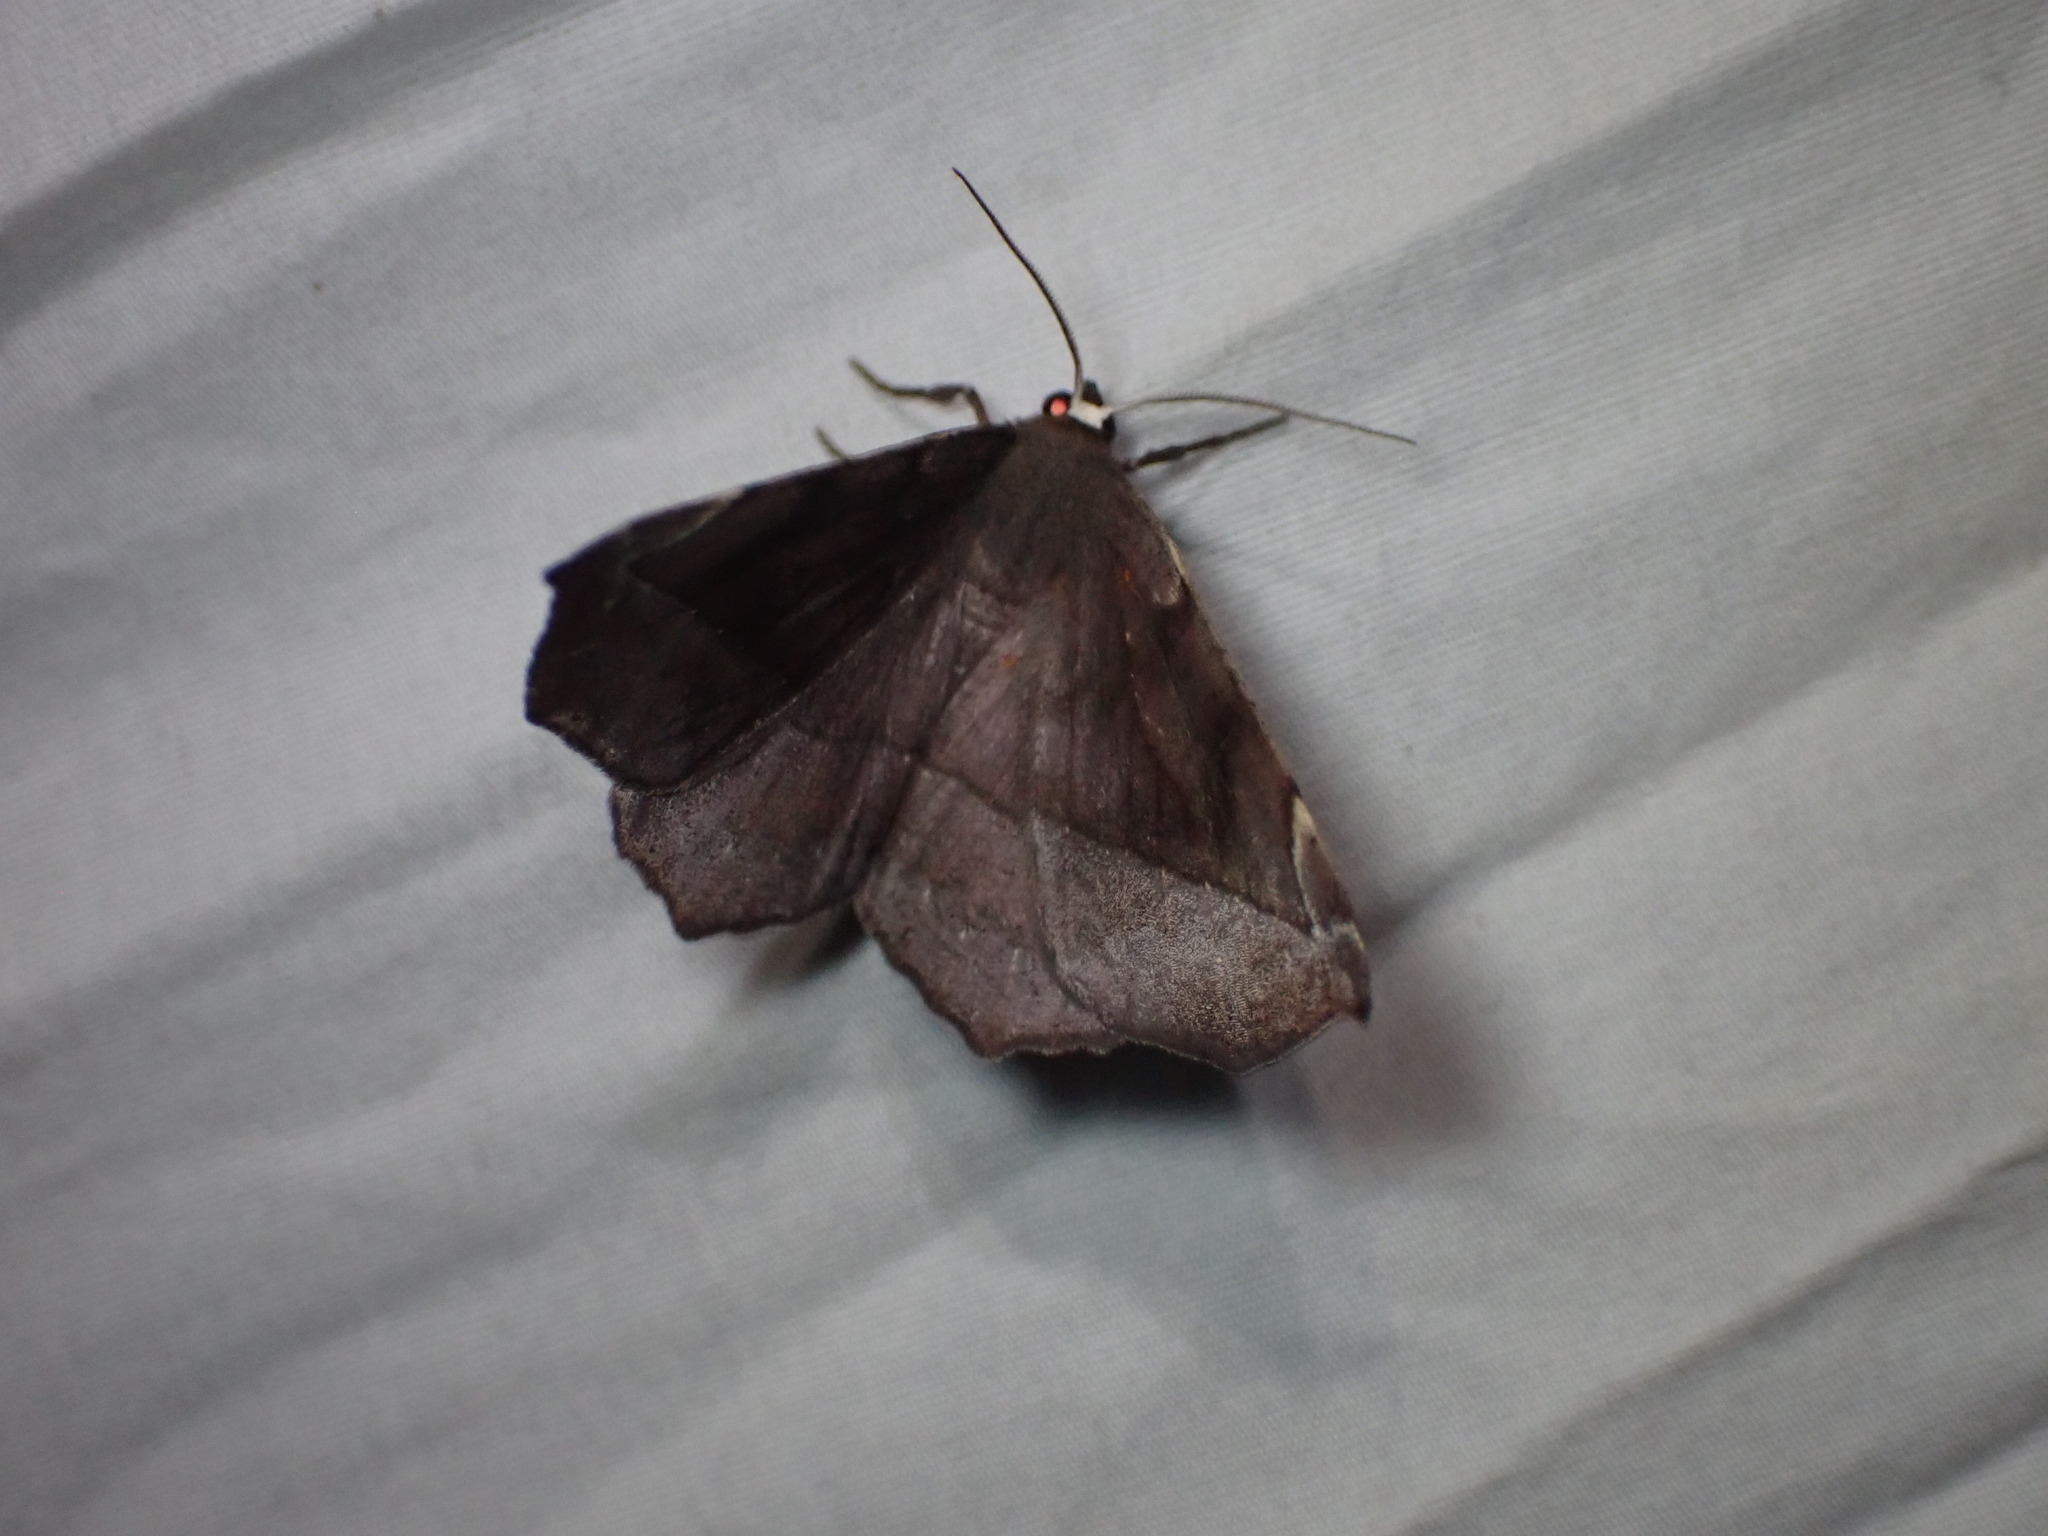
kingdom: Animalia
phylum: Arthropoda
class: Insecta
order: Lepidoptera
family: Geometridae
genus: Eutrapela
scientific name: Eutrapela clemataria
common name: Curved-toothed geometer
